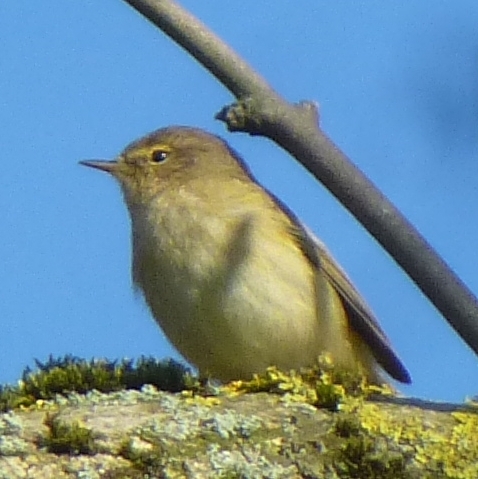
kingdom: Animalia
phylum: Chordata
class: Aves
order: Passeriformes
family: Phylloscopidae
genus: Phylloscopus
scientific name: Phylloscopus collybita
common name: Common chiffchaff
